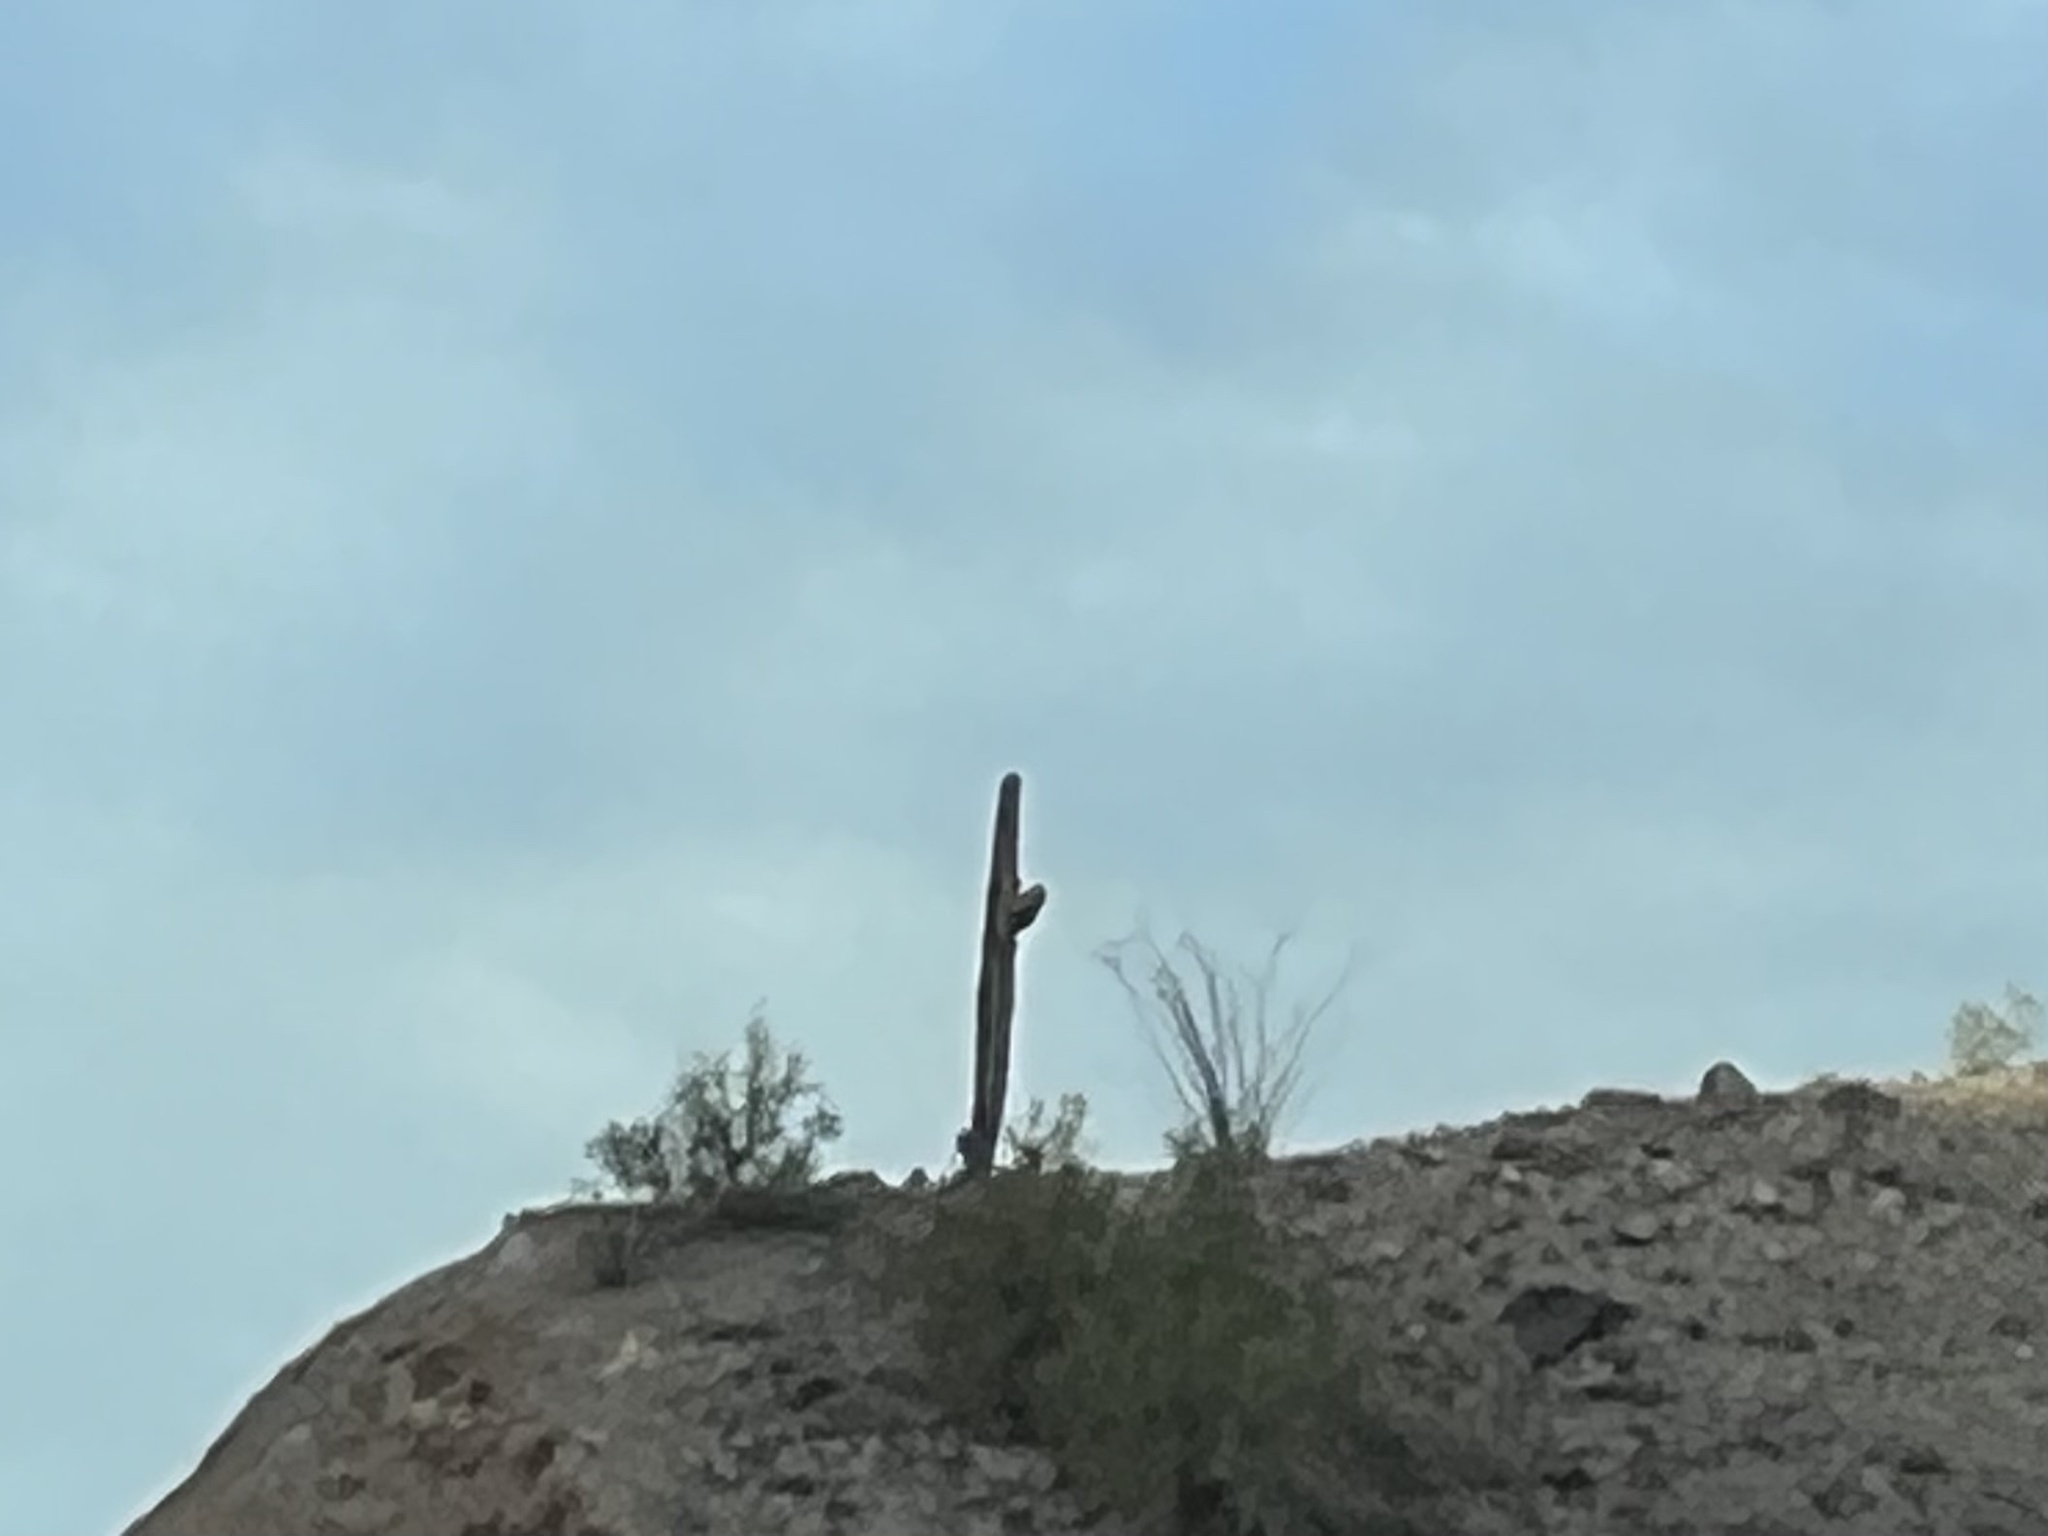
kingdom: Plantae
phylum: Tracheophyta
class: Magnoliopsida
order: Caryophyllales
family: Cactaceae
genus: Carnegiea
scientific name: Carnegiea gigantea
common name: Saguaro
